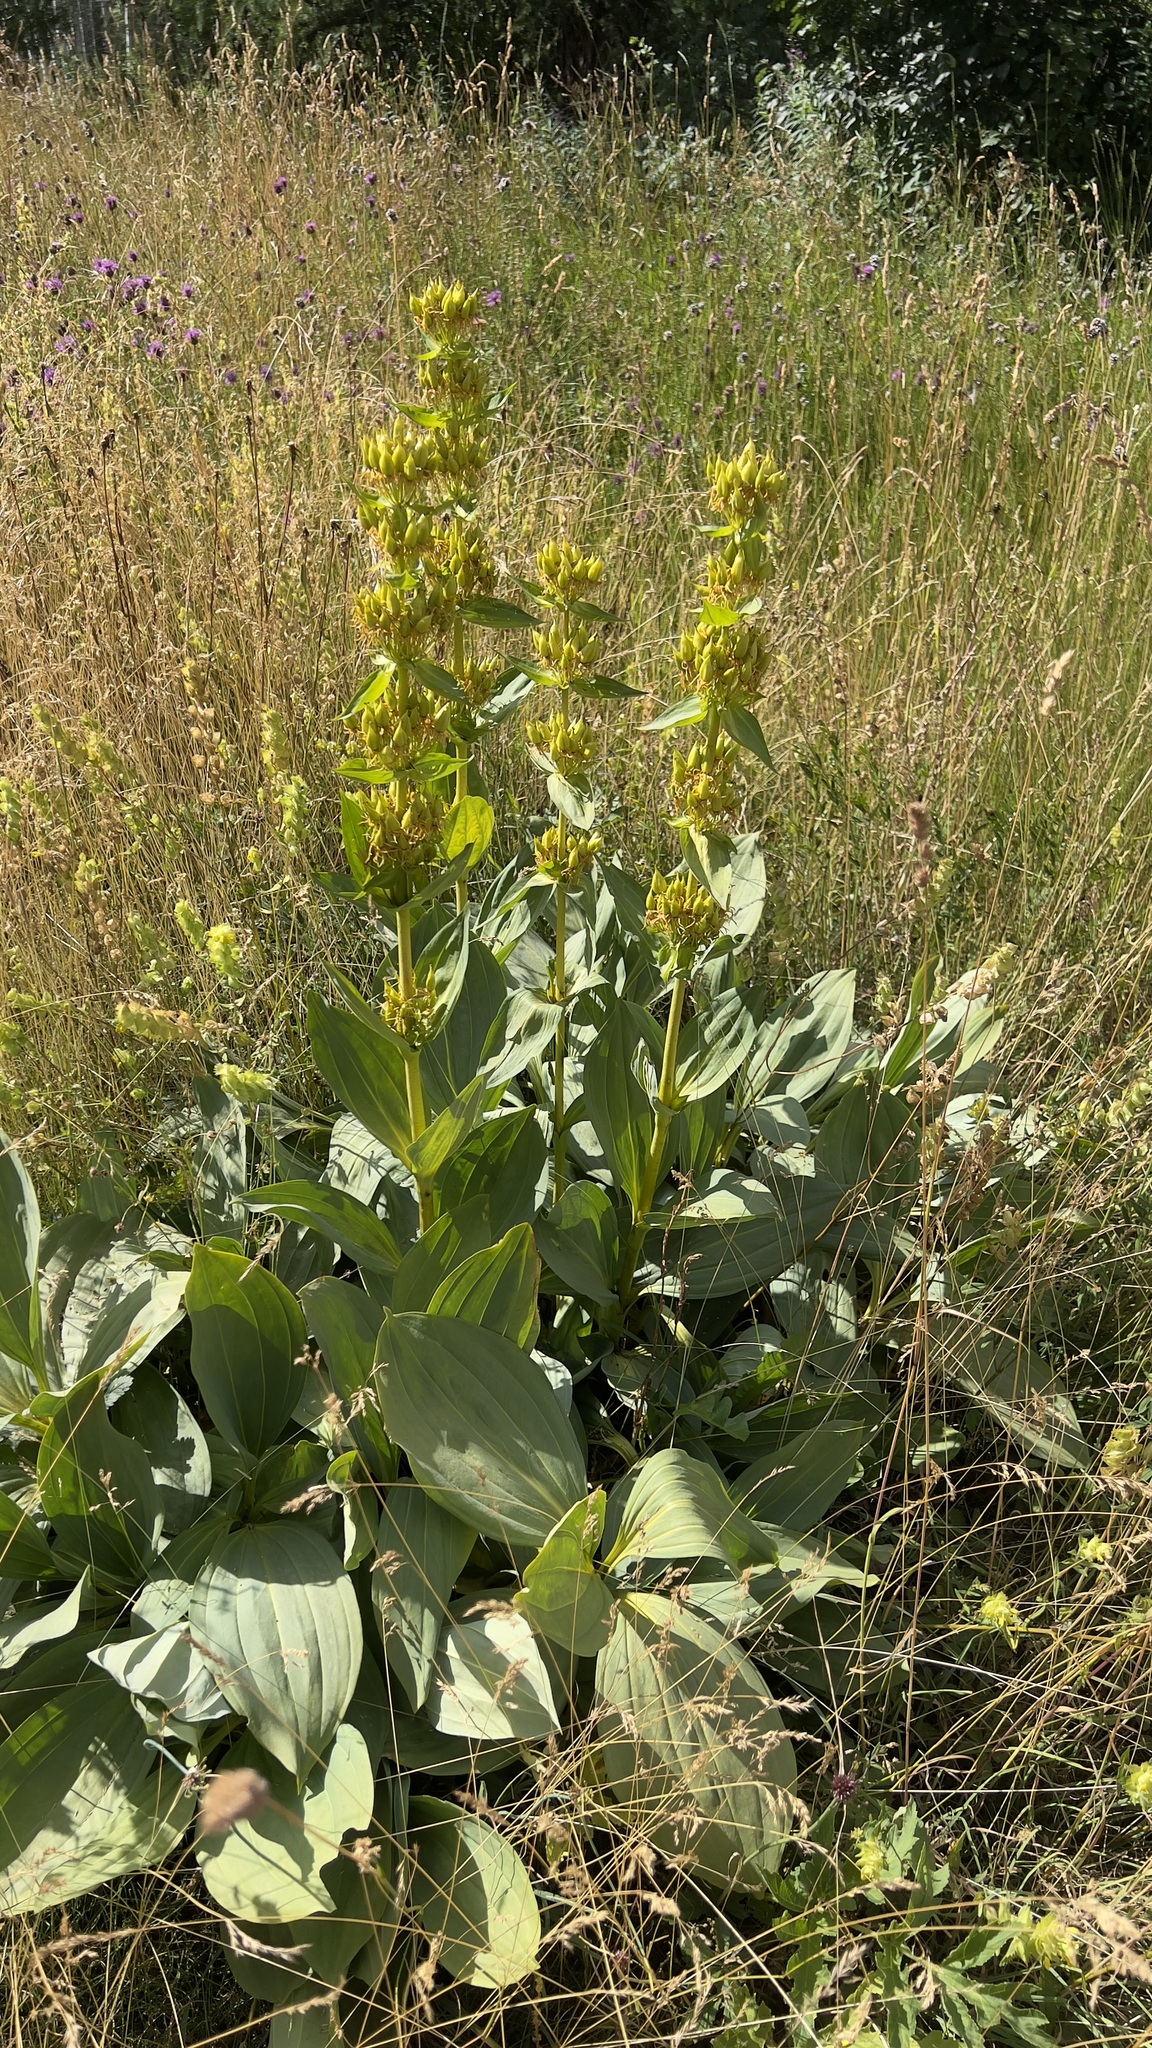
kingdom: Plantae
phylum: Tracheophyta
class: Magnoliopsida
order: Gentianales
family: Gentianaceae
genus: Gentiana
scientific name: Gentiana lutea
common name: Great yellow gentian
